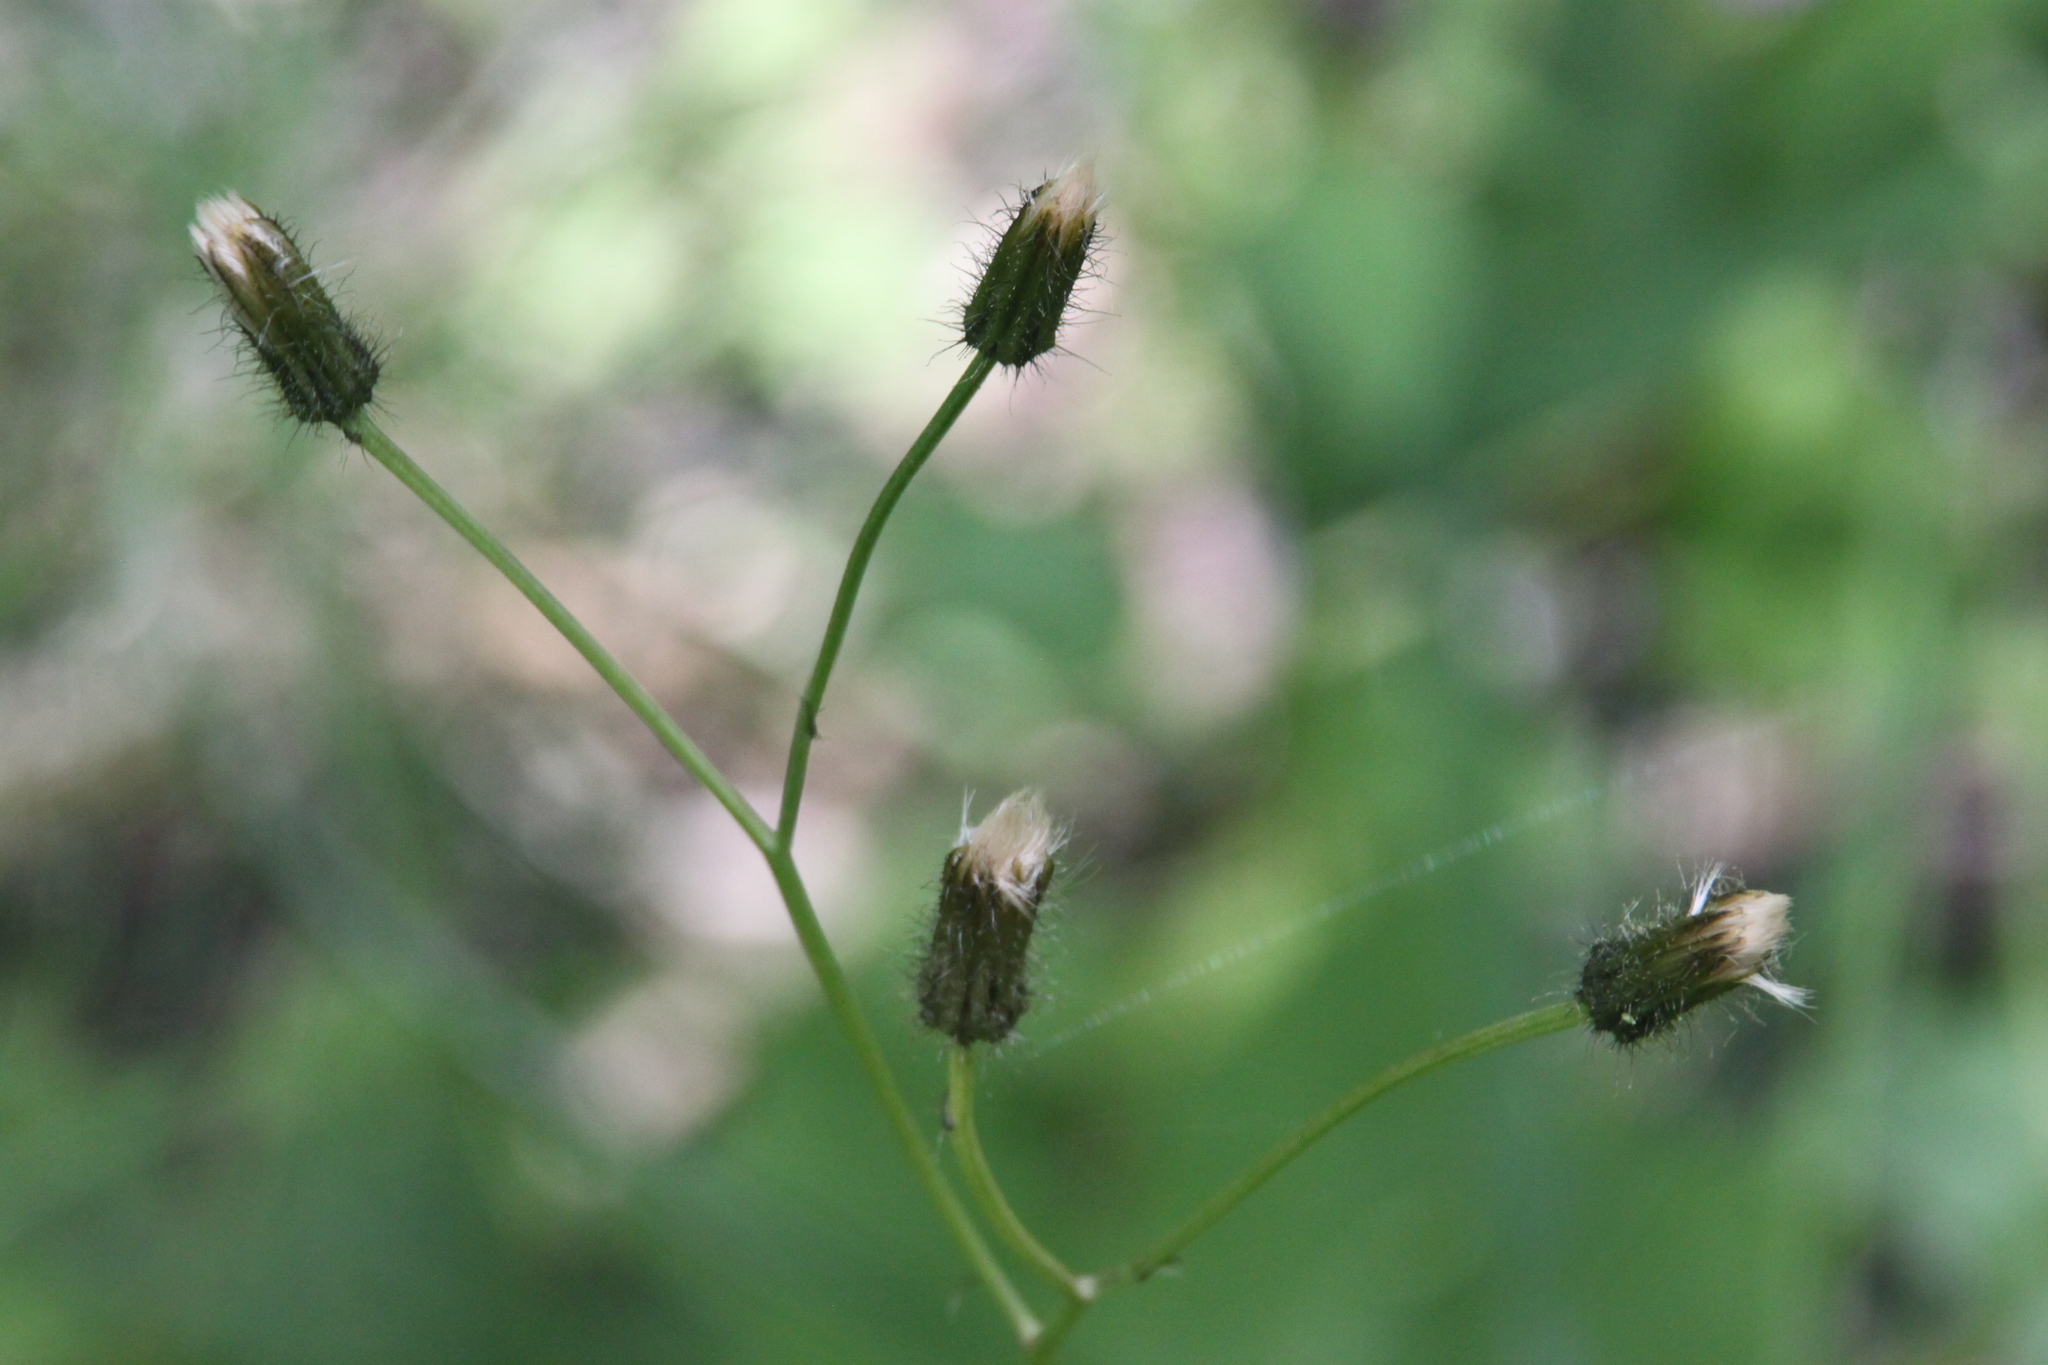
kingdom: Plantae
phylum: Tracheophyta
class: Magnoliopsida
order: Asterales
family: Asteraceae
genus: Crepis
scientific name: Crepis paludosa
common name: Marsh hawk's-beard
